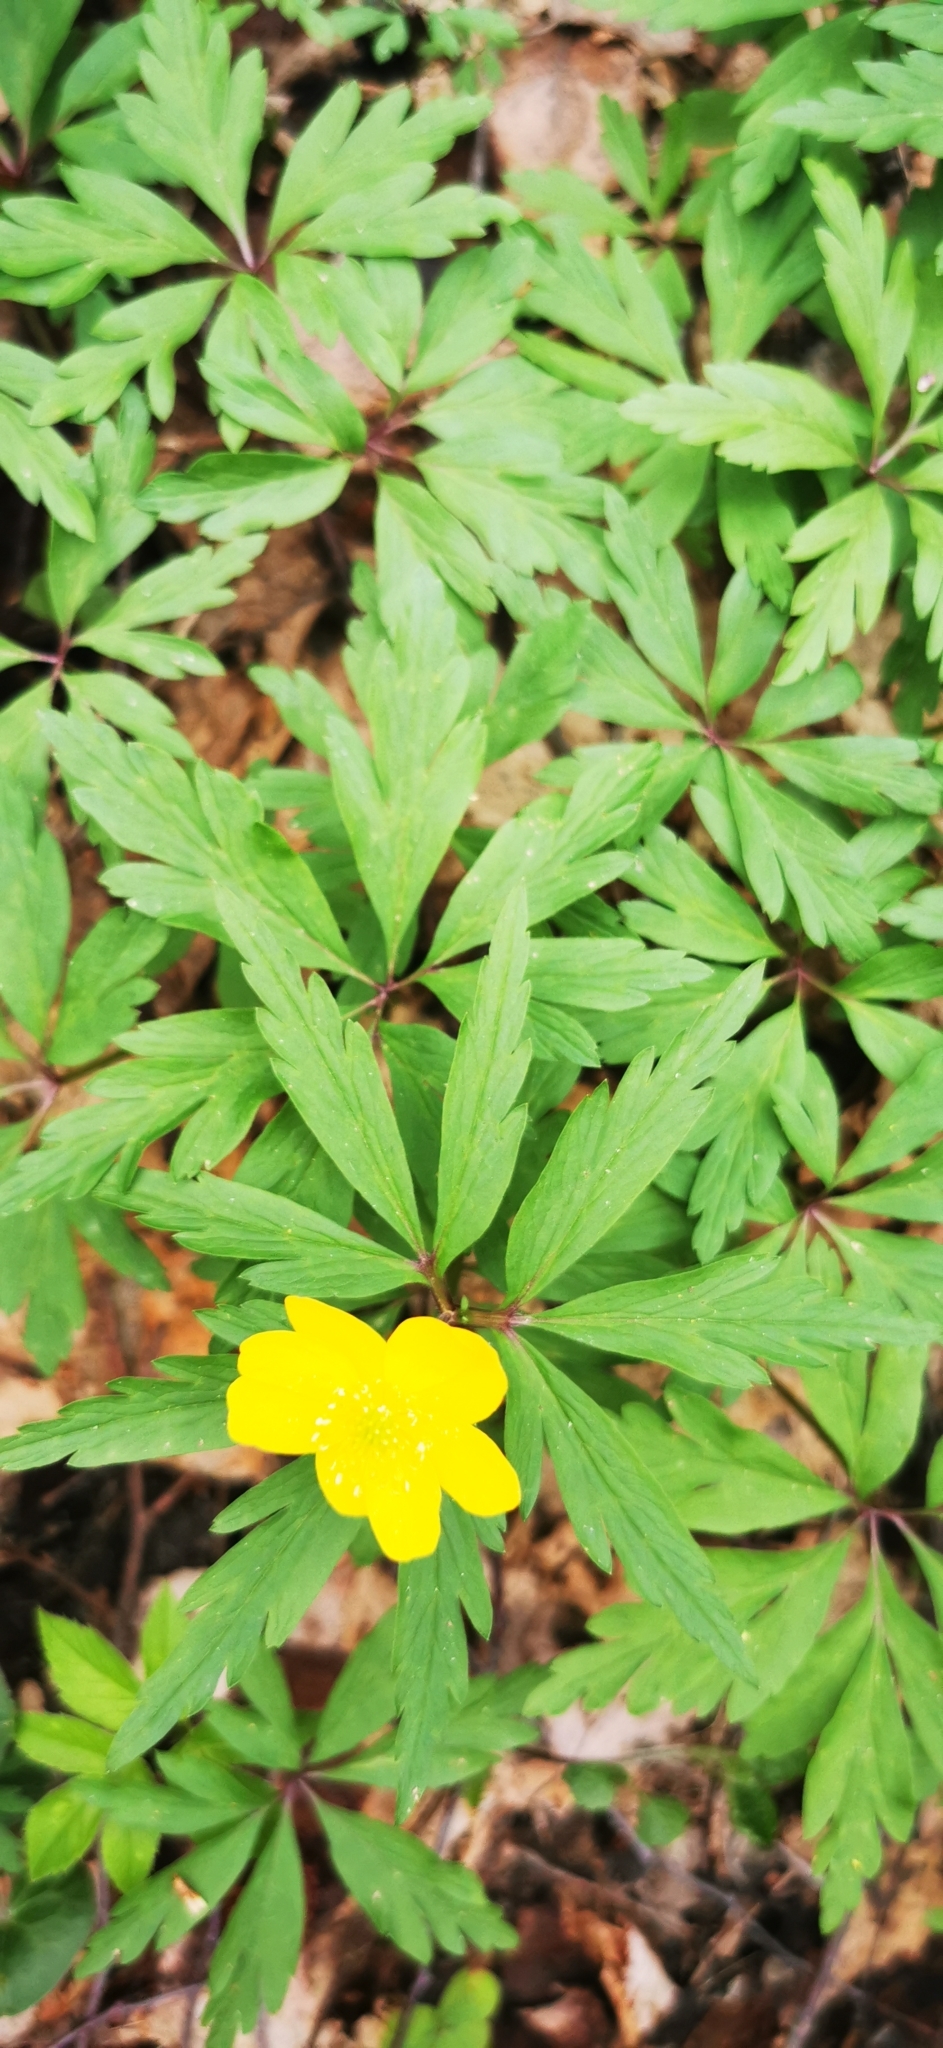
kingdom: Plantae
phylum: Tracheophyta
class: Magnoliopsida
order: Ranunculales
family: Ranunculaceae
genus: Anemone
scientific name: Anemone ranunculoides
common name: Yellow anemone
